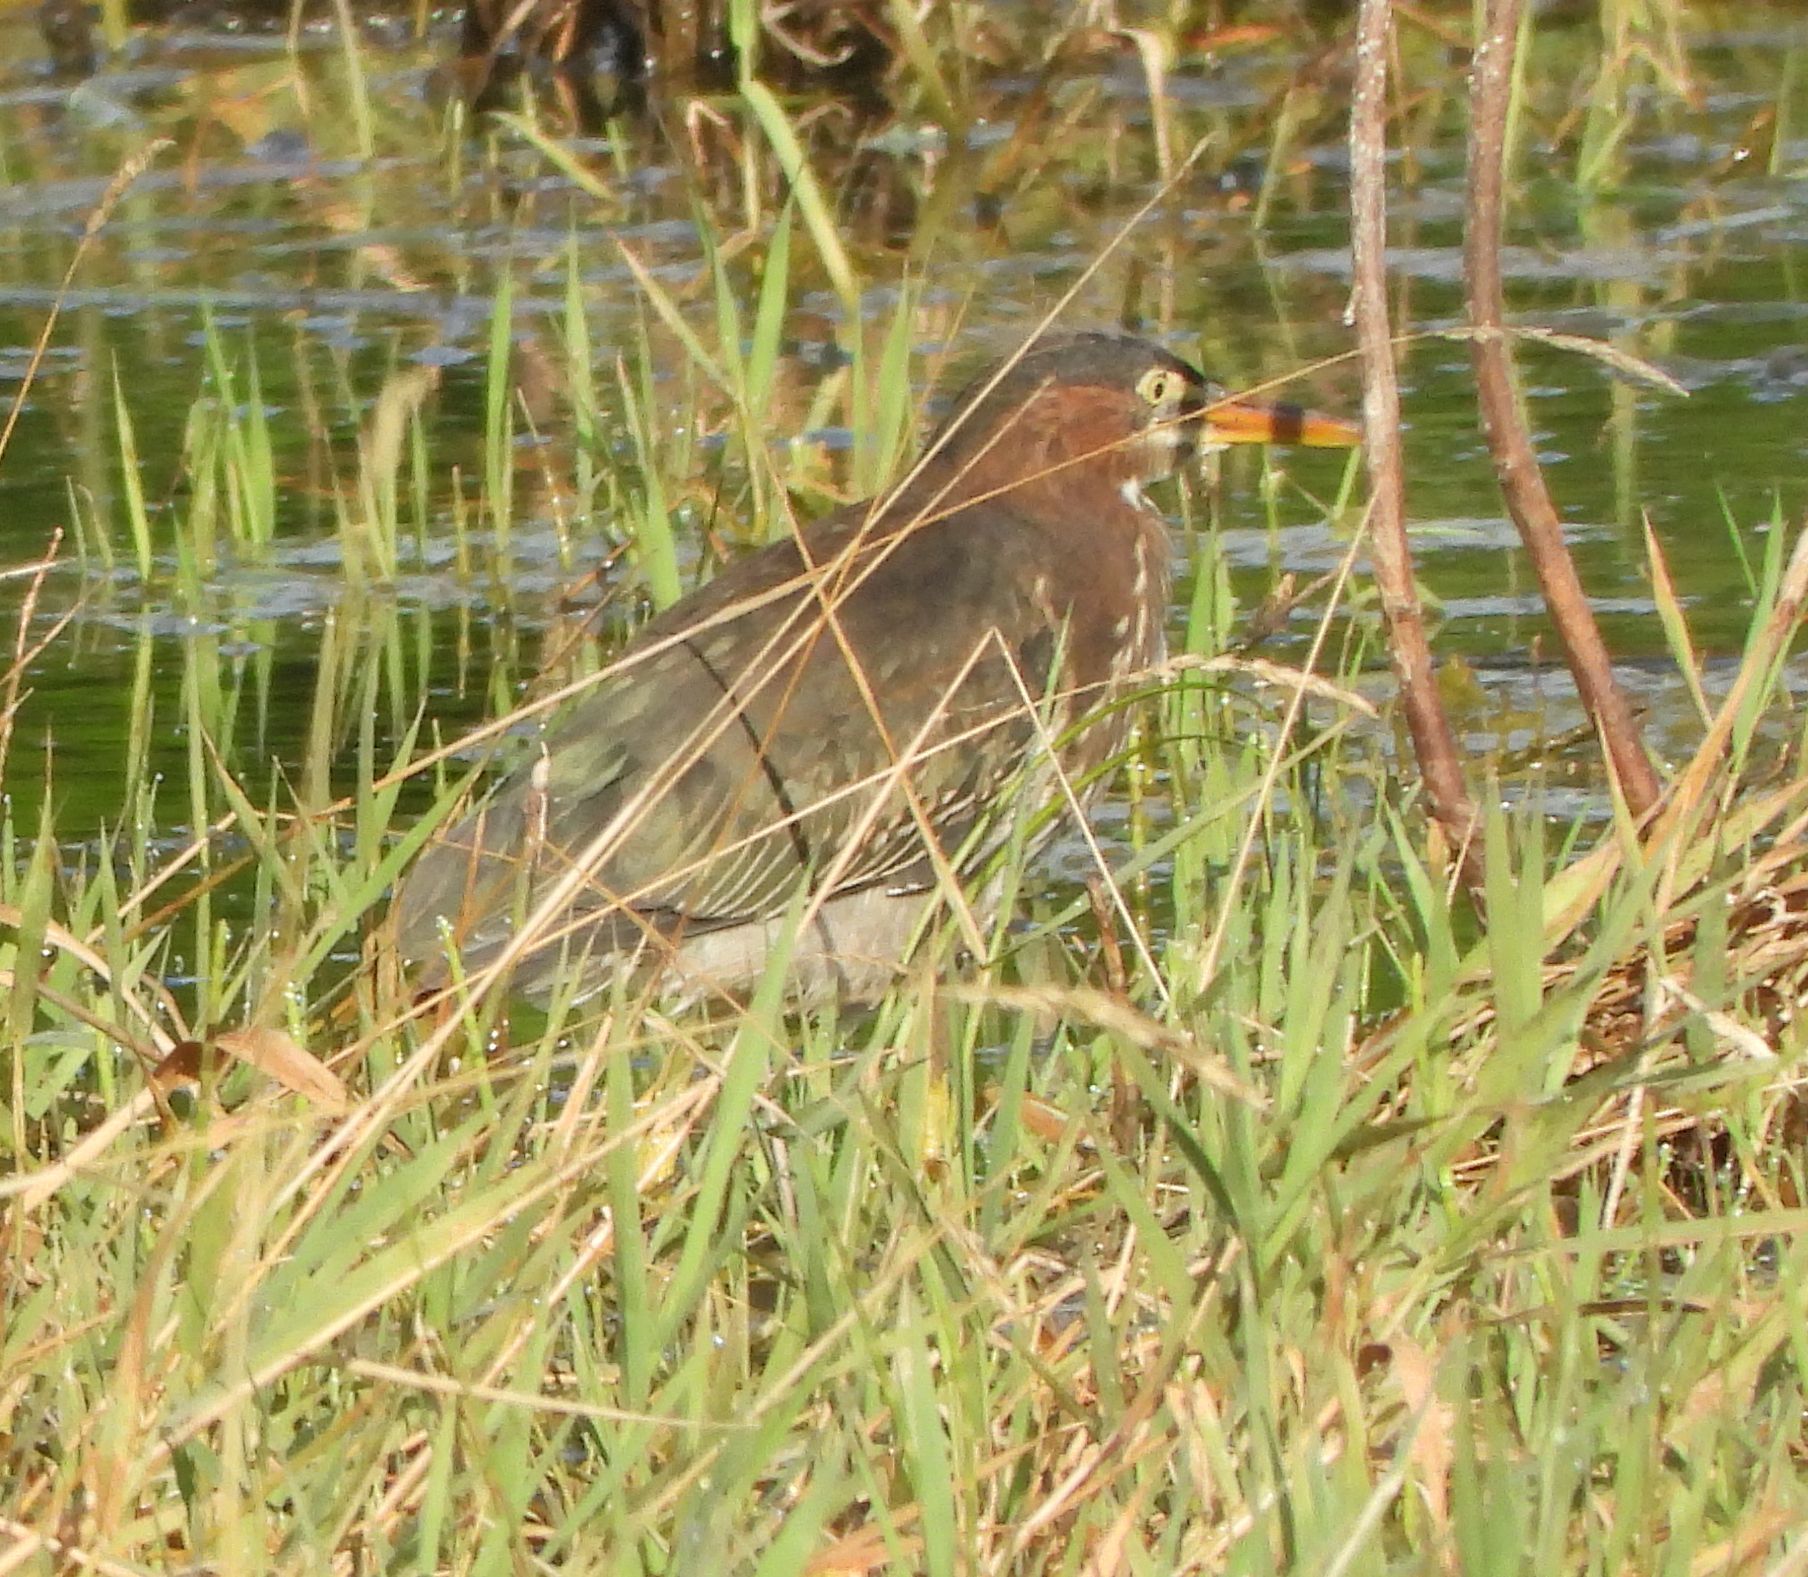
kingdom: Animalia
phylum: Chordata
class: Aves
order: Pelecaniformes
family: Ardeidae
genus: Butorides
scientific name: Butorides virescens
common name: Green heron
